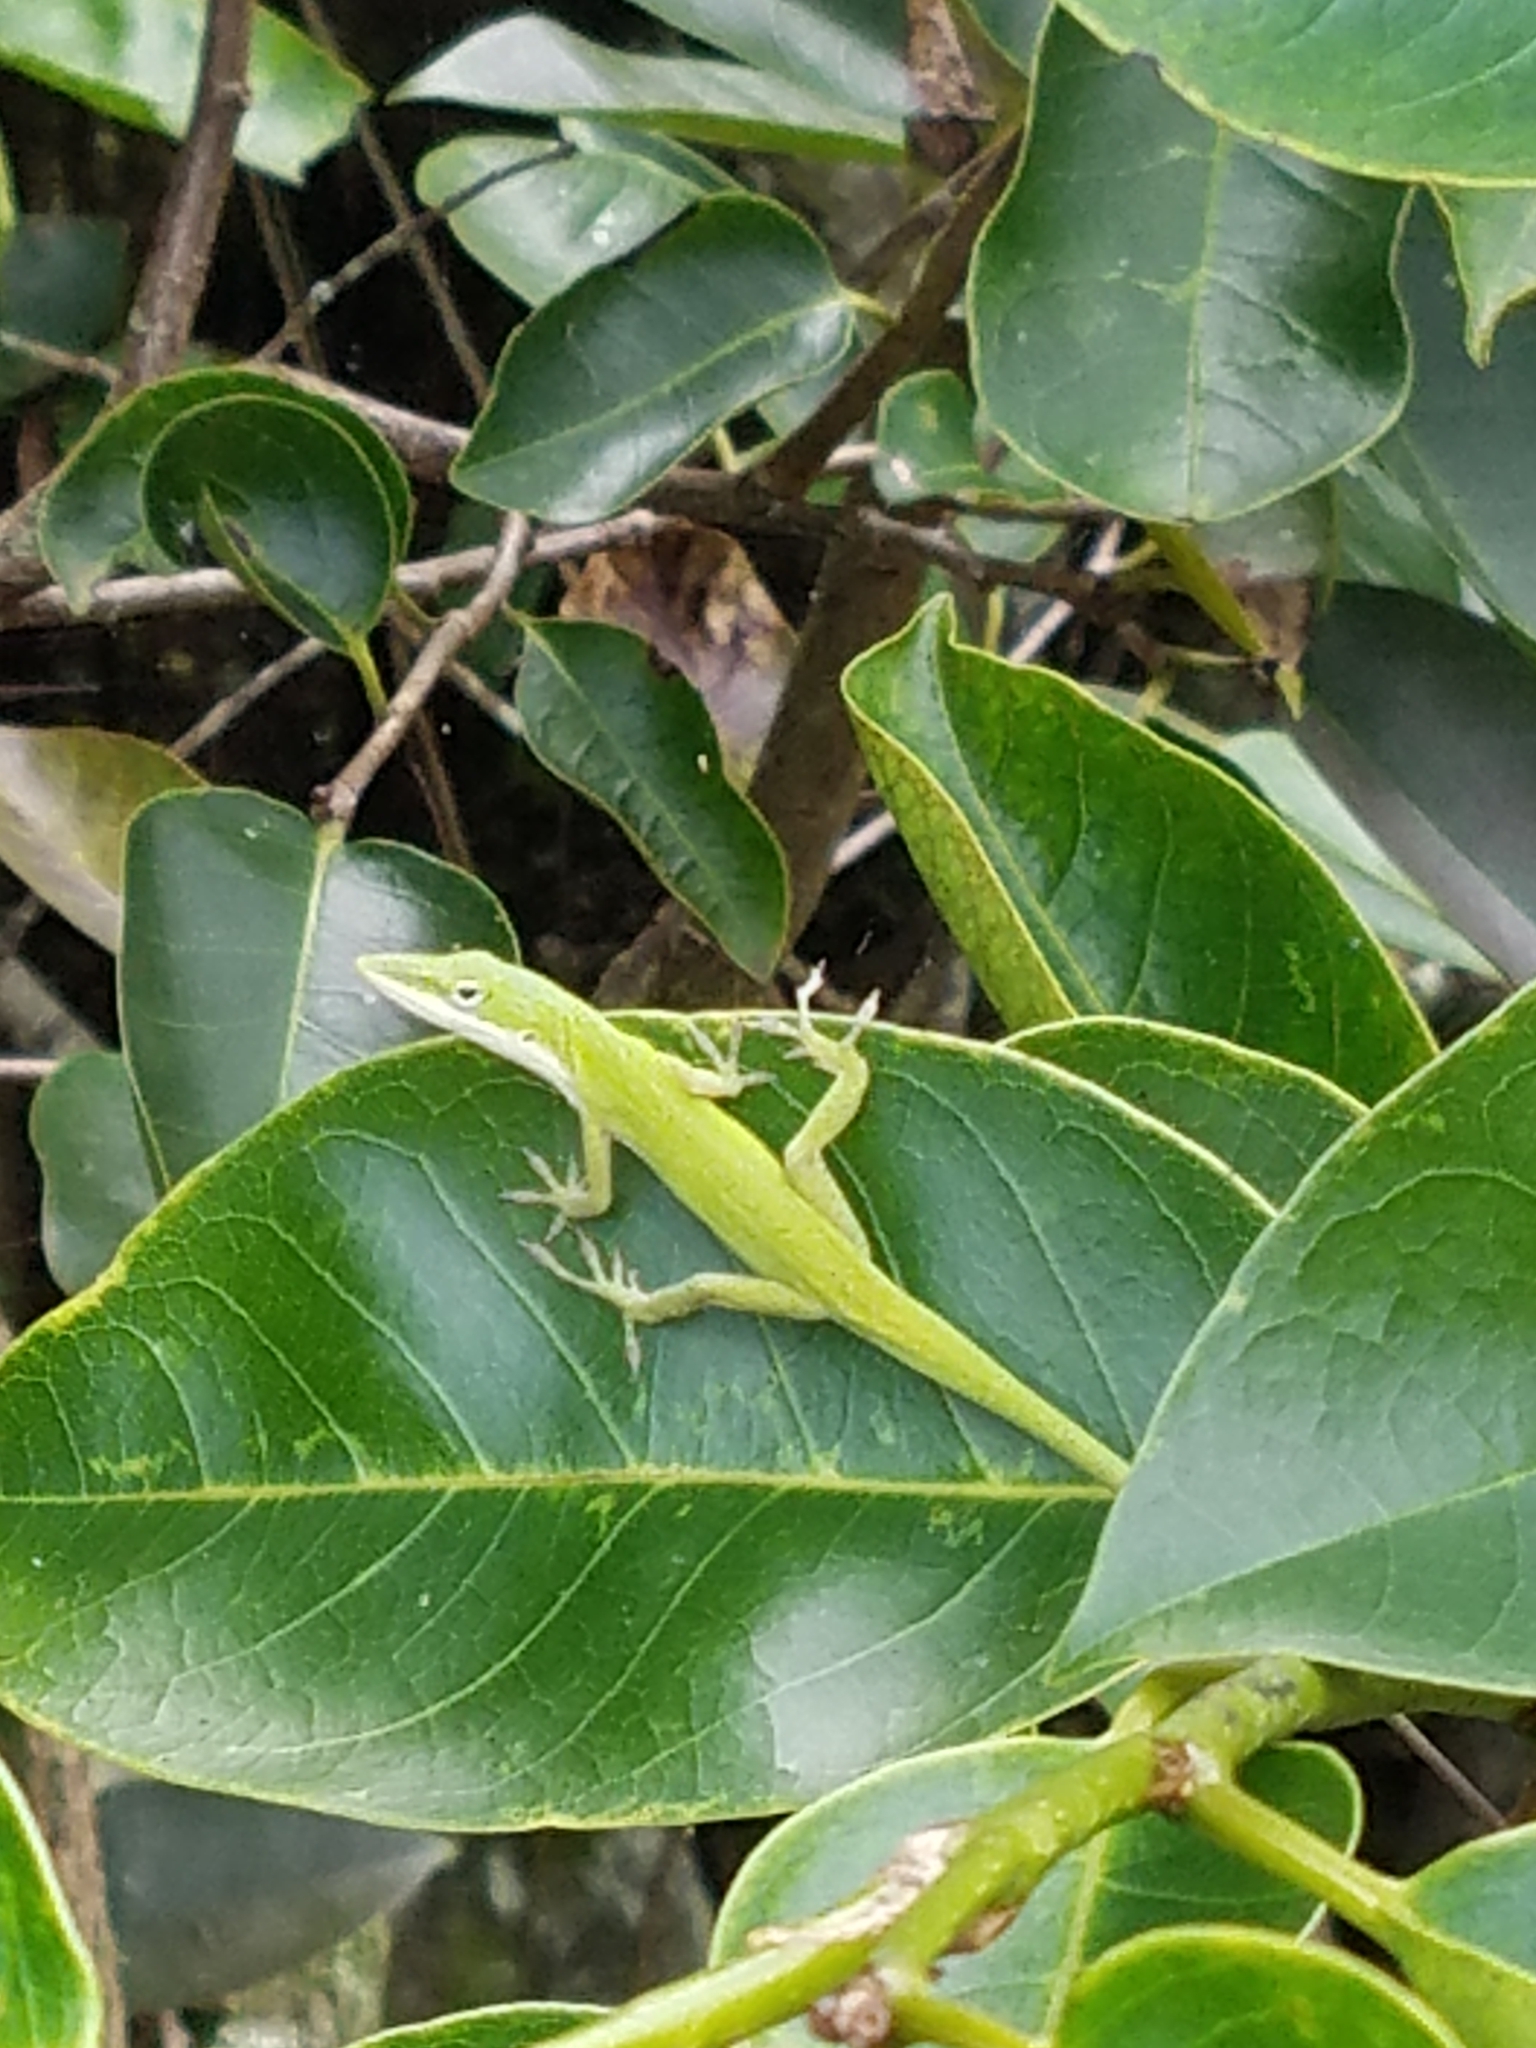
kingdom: Animalia
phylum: Chordata
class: Squamata
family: Dactyloidae
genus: Anolis
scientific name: Anolis carolinensis
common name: Green anole
